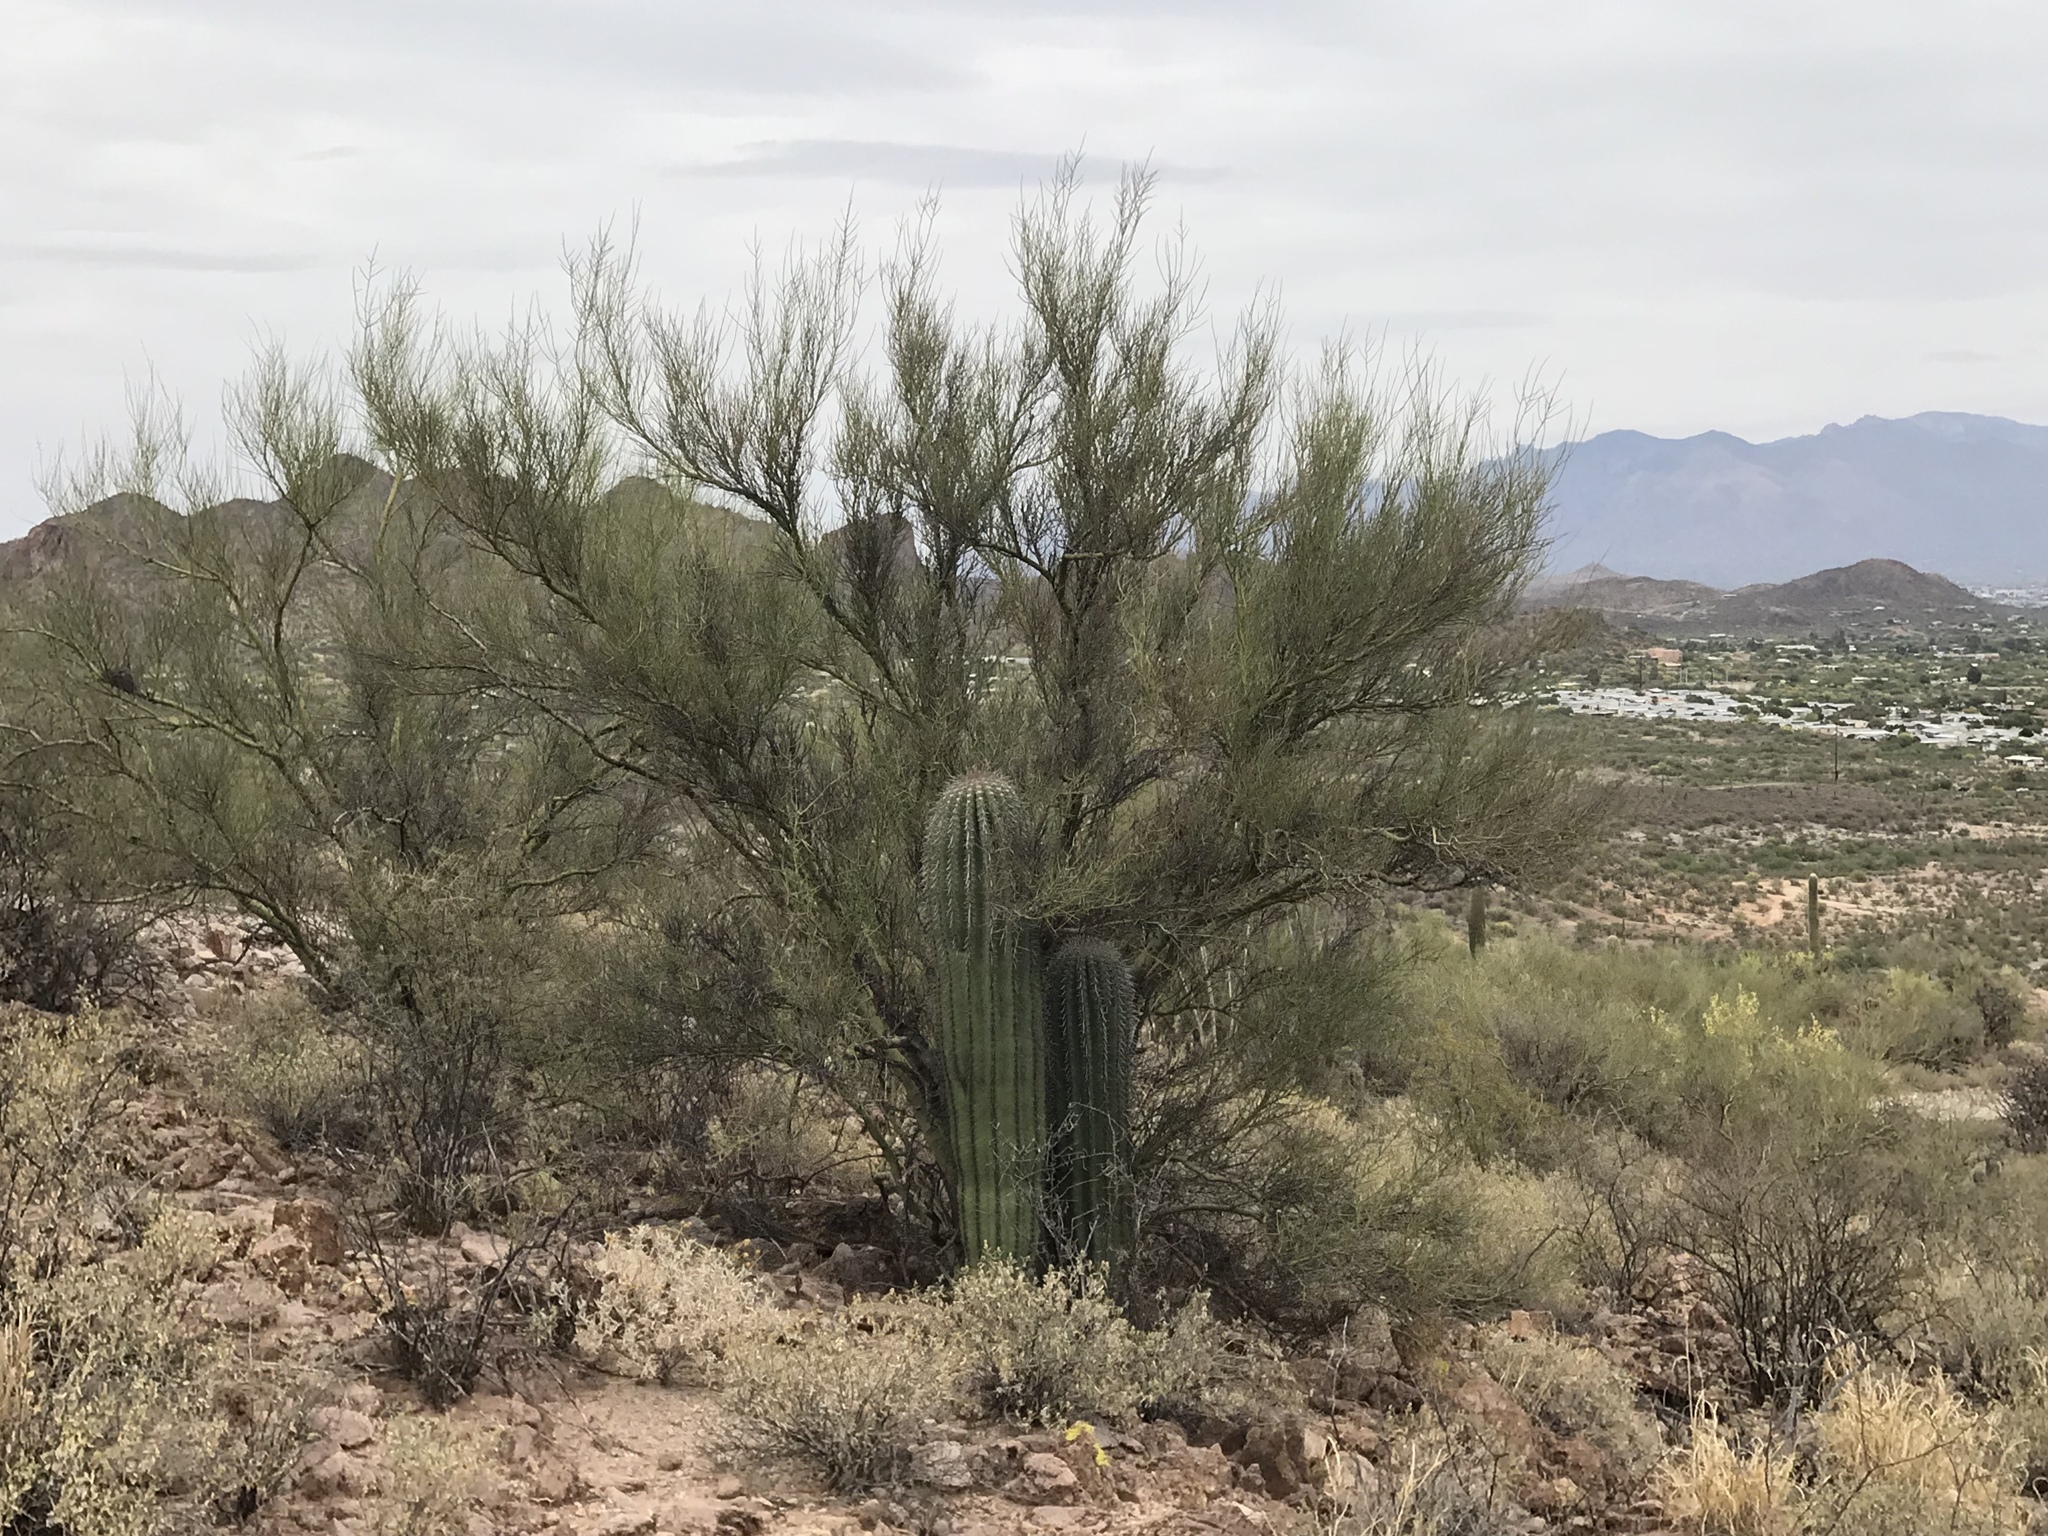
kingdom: Plantae
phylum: Tracheophyta
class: Magnoliopsida
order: Fabales
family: Fabaceae
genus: Parkinsonia
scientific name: Parkinsonia microphylla
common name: Yellow paloverde
